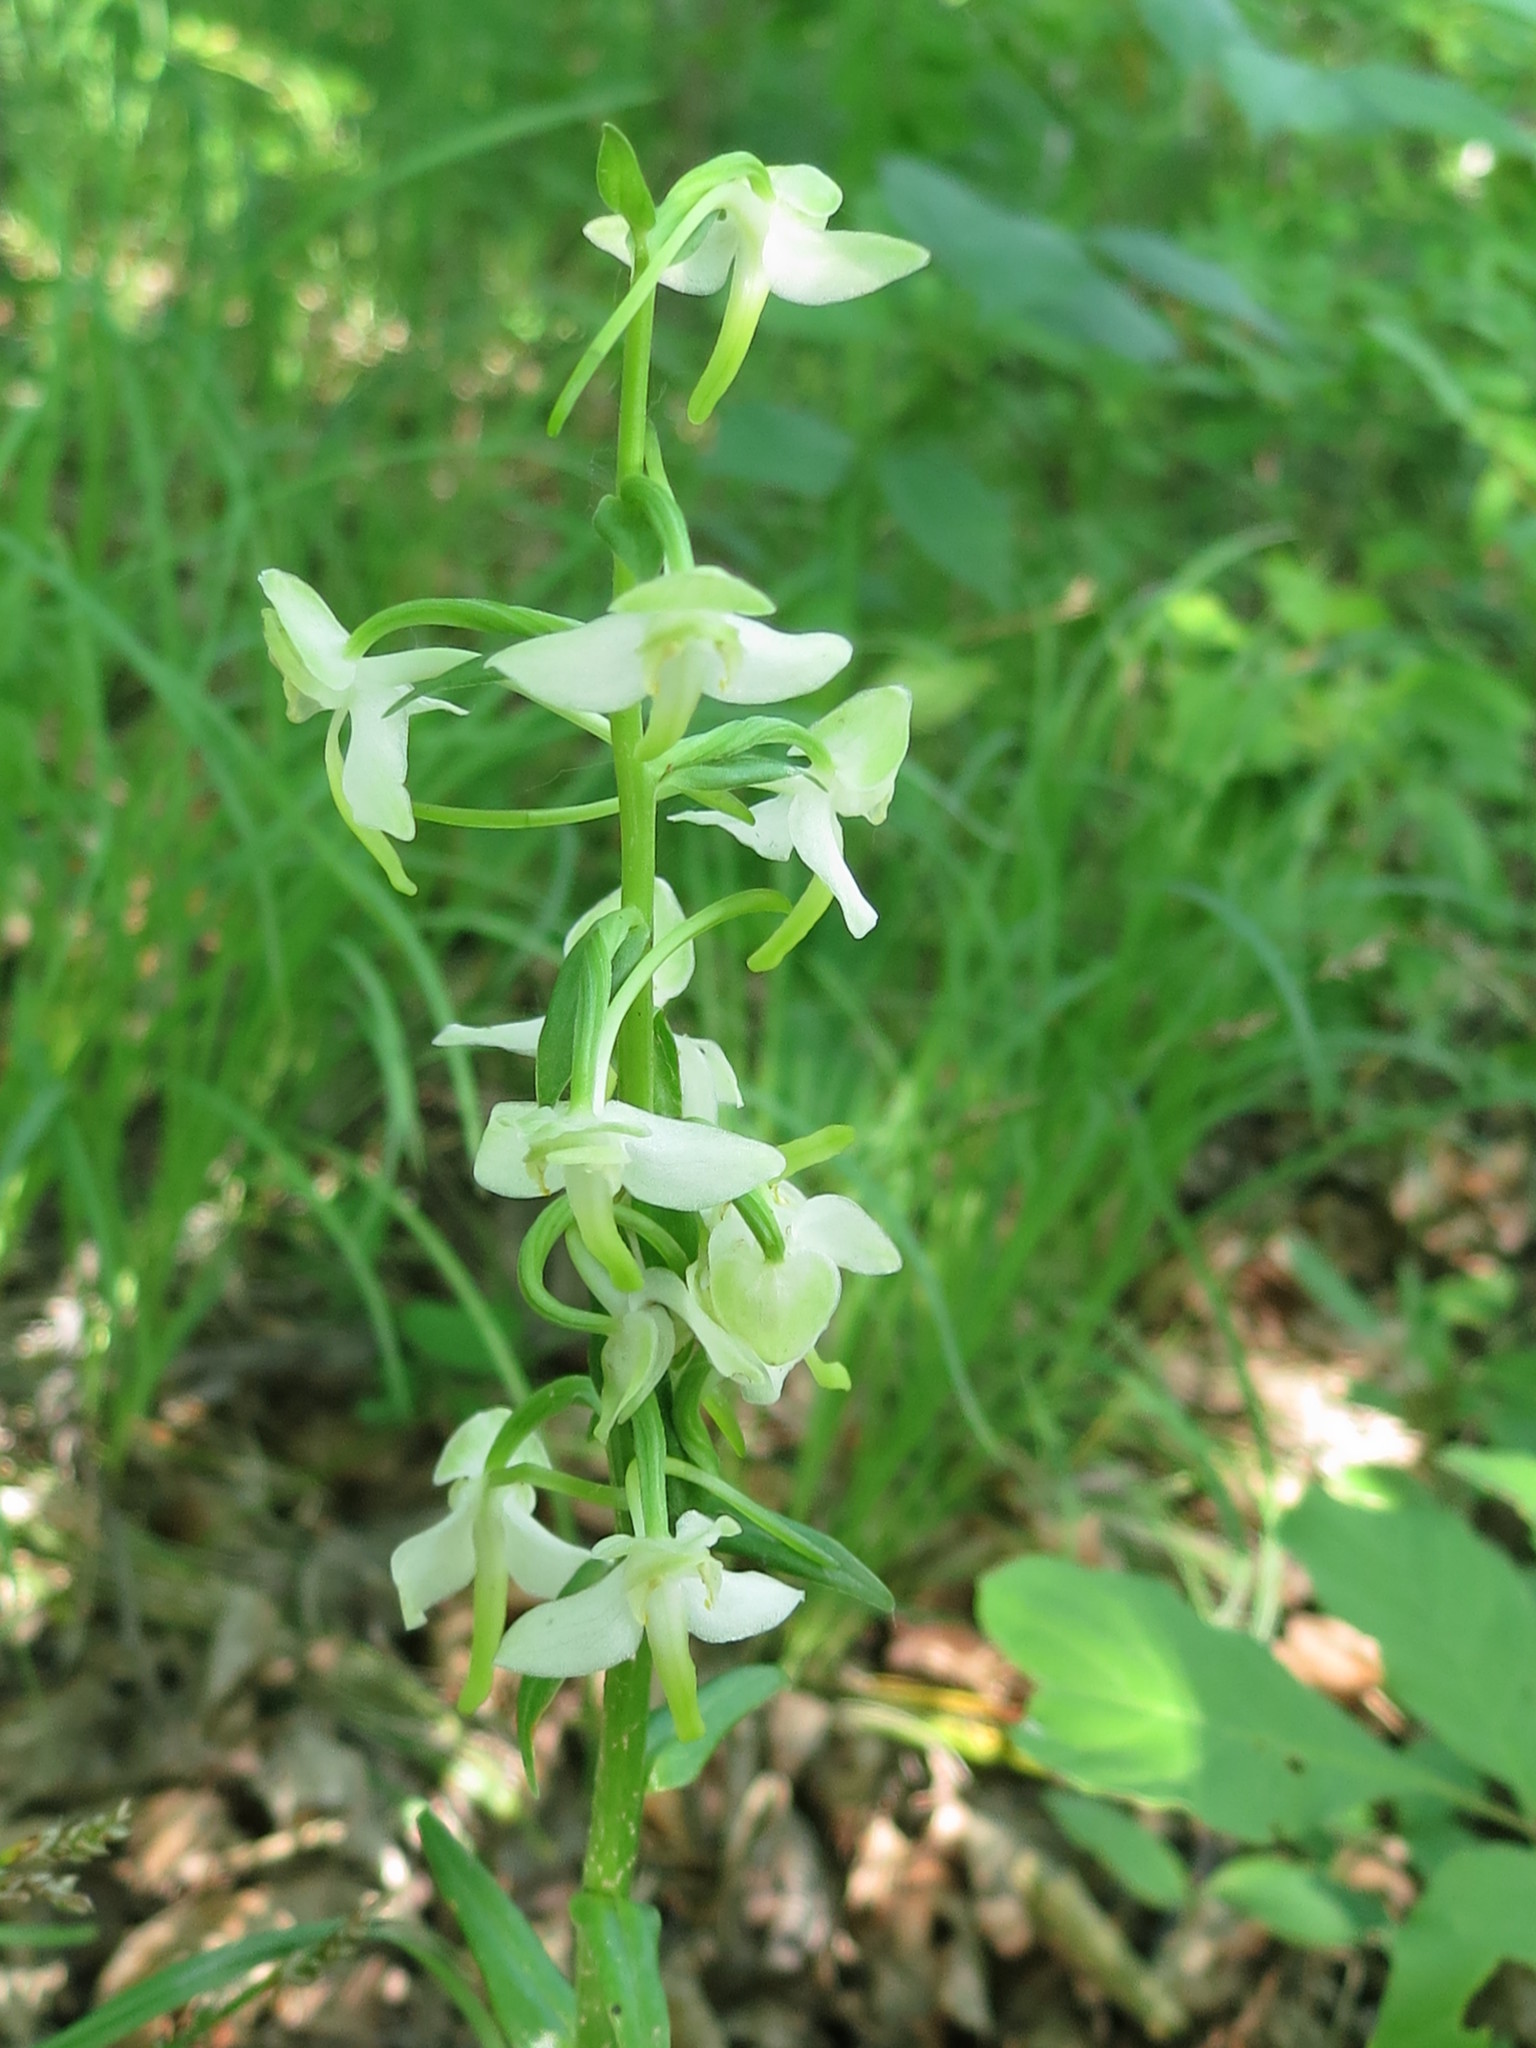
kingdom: Plantae
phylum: Tracheophyta
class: Liliopsida
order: Asparagales
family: Orchidaceae
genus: Platanthera
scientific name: Platanthera densa
